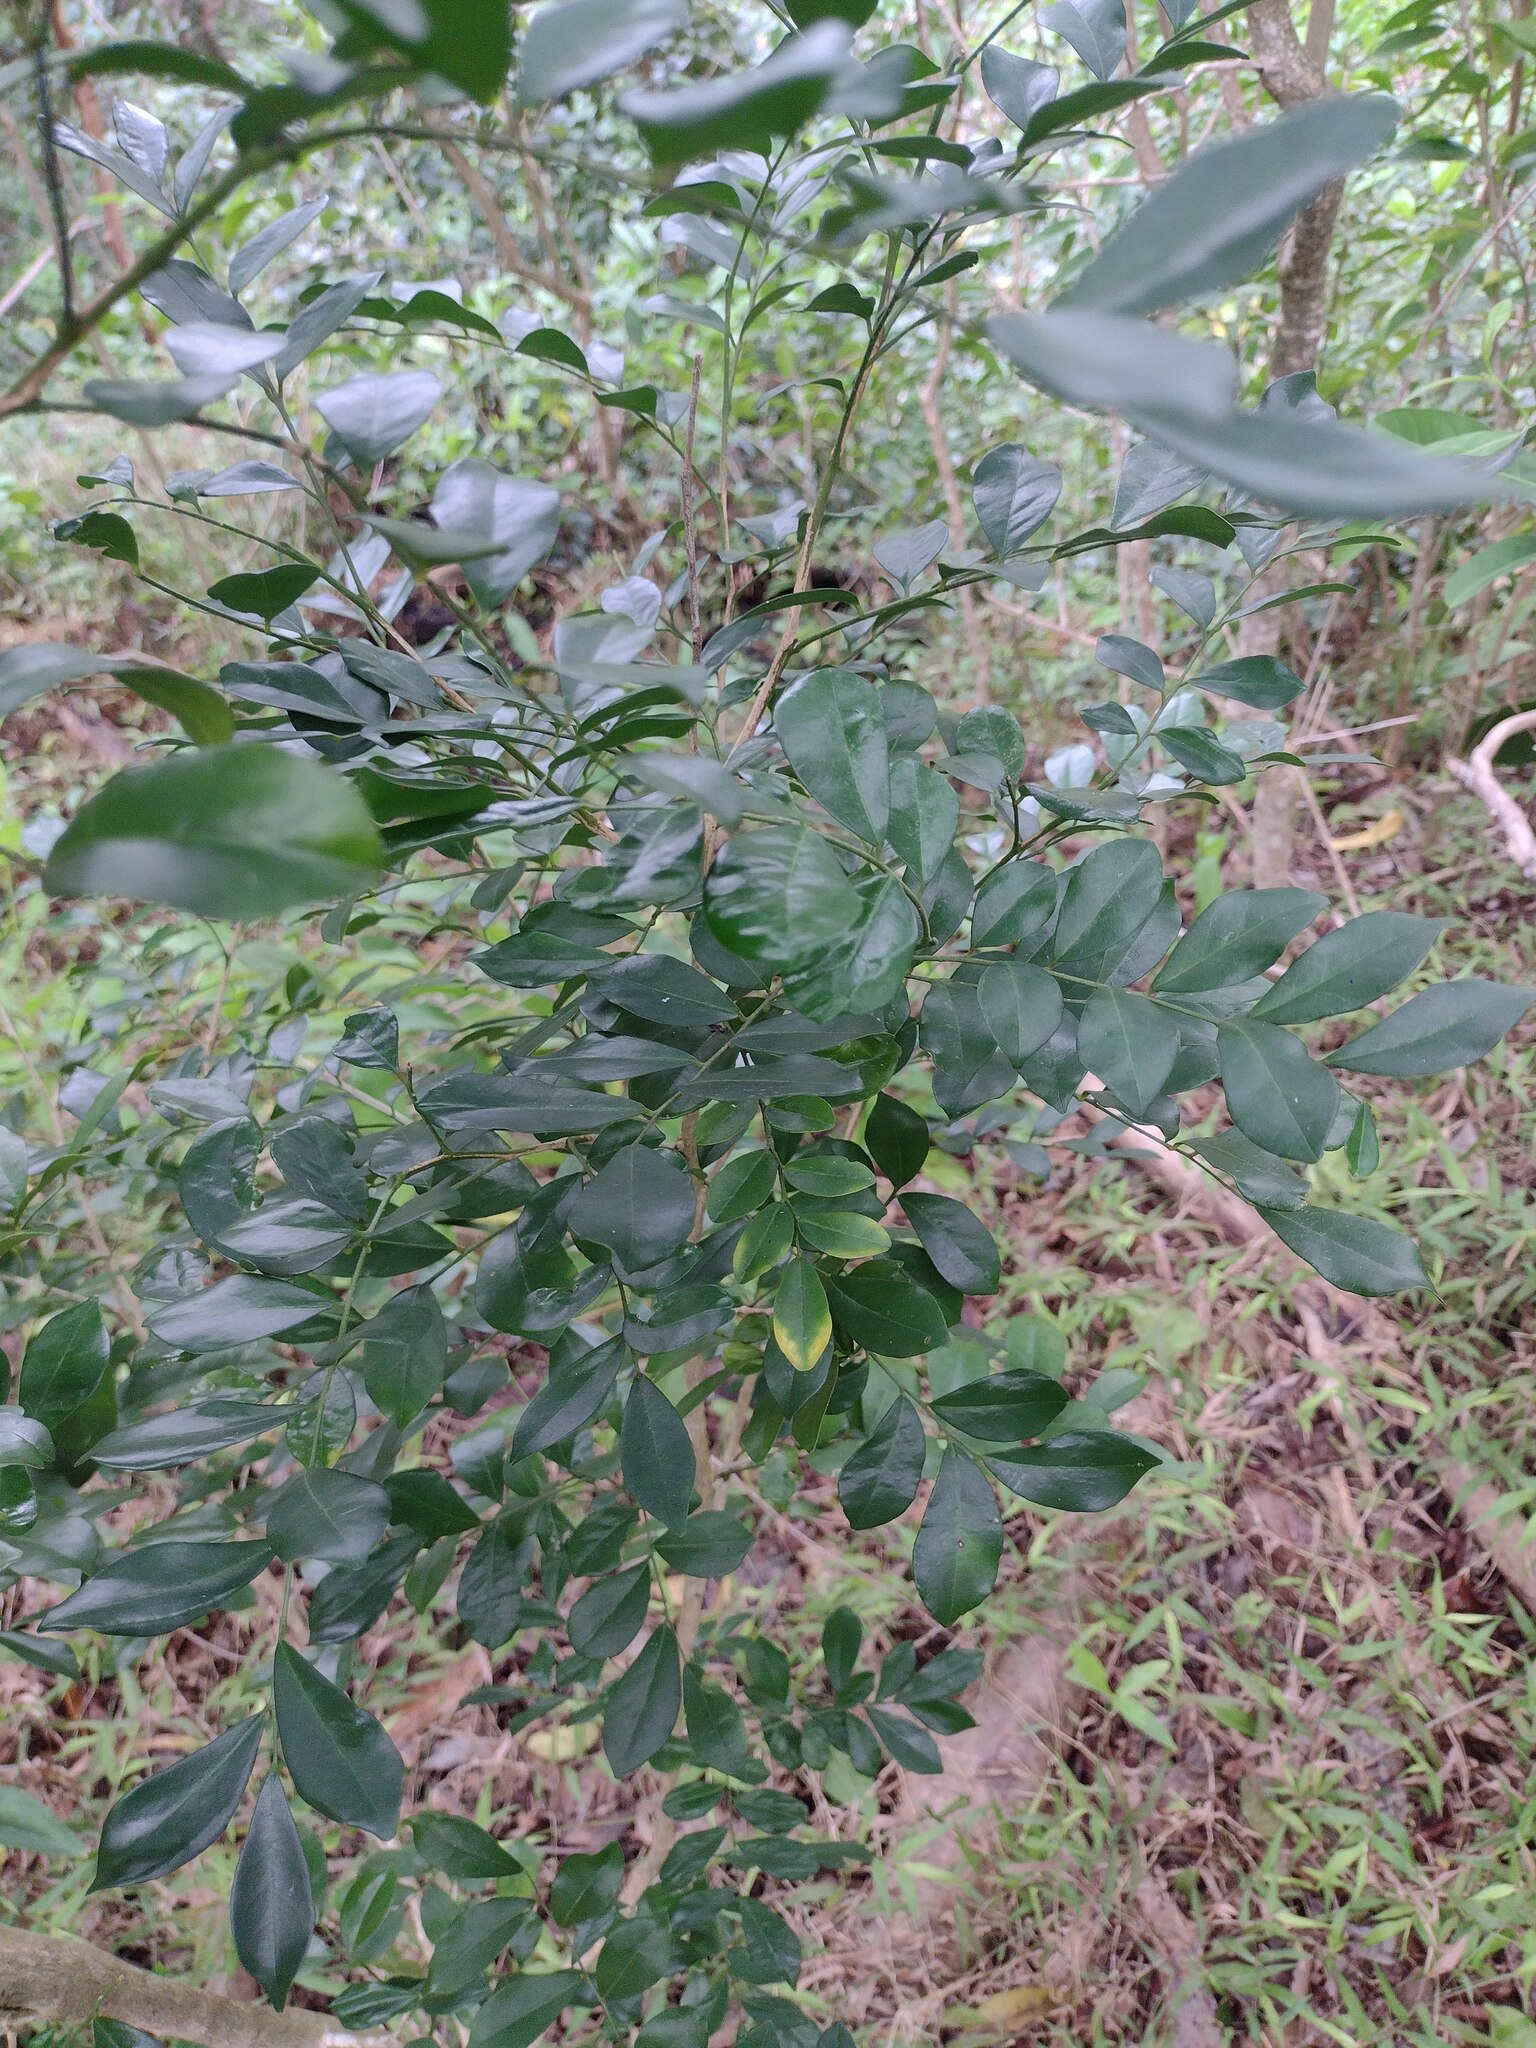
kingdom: Plantae
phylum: Tracheophyta
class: Magnoliopsida
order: Sapindales
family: Rutaceae
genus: Murraya
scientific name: Murraya paniculata
